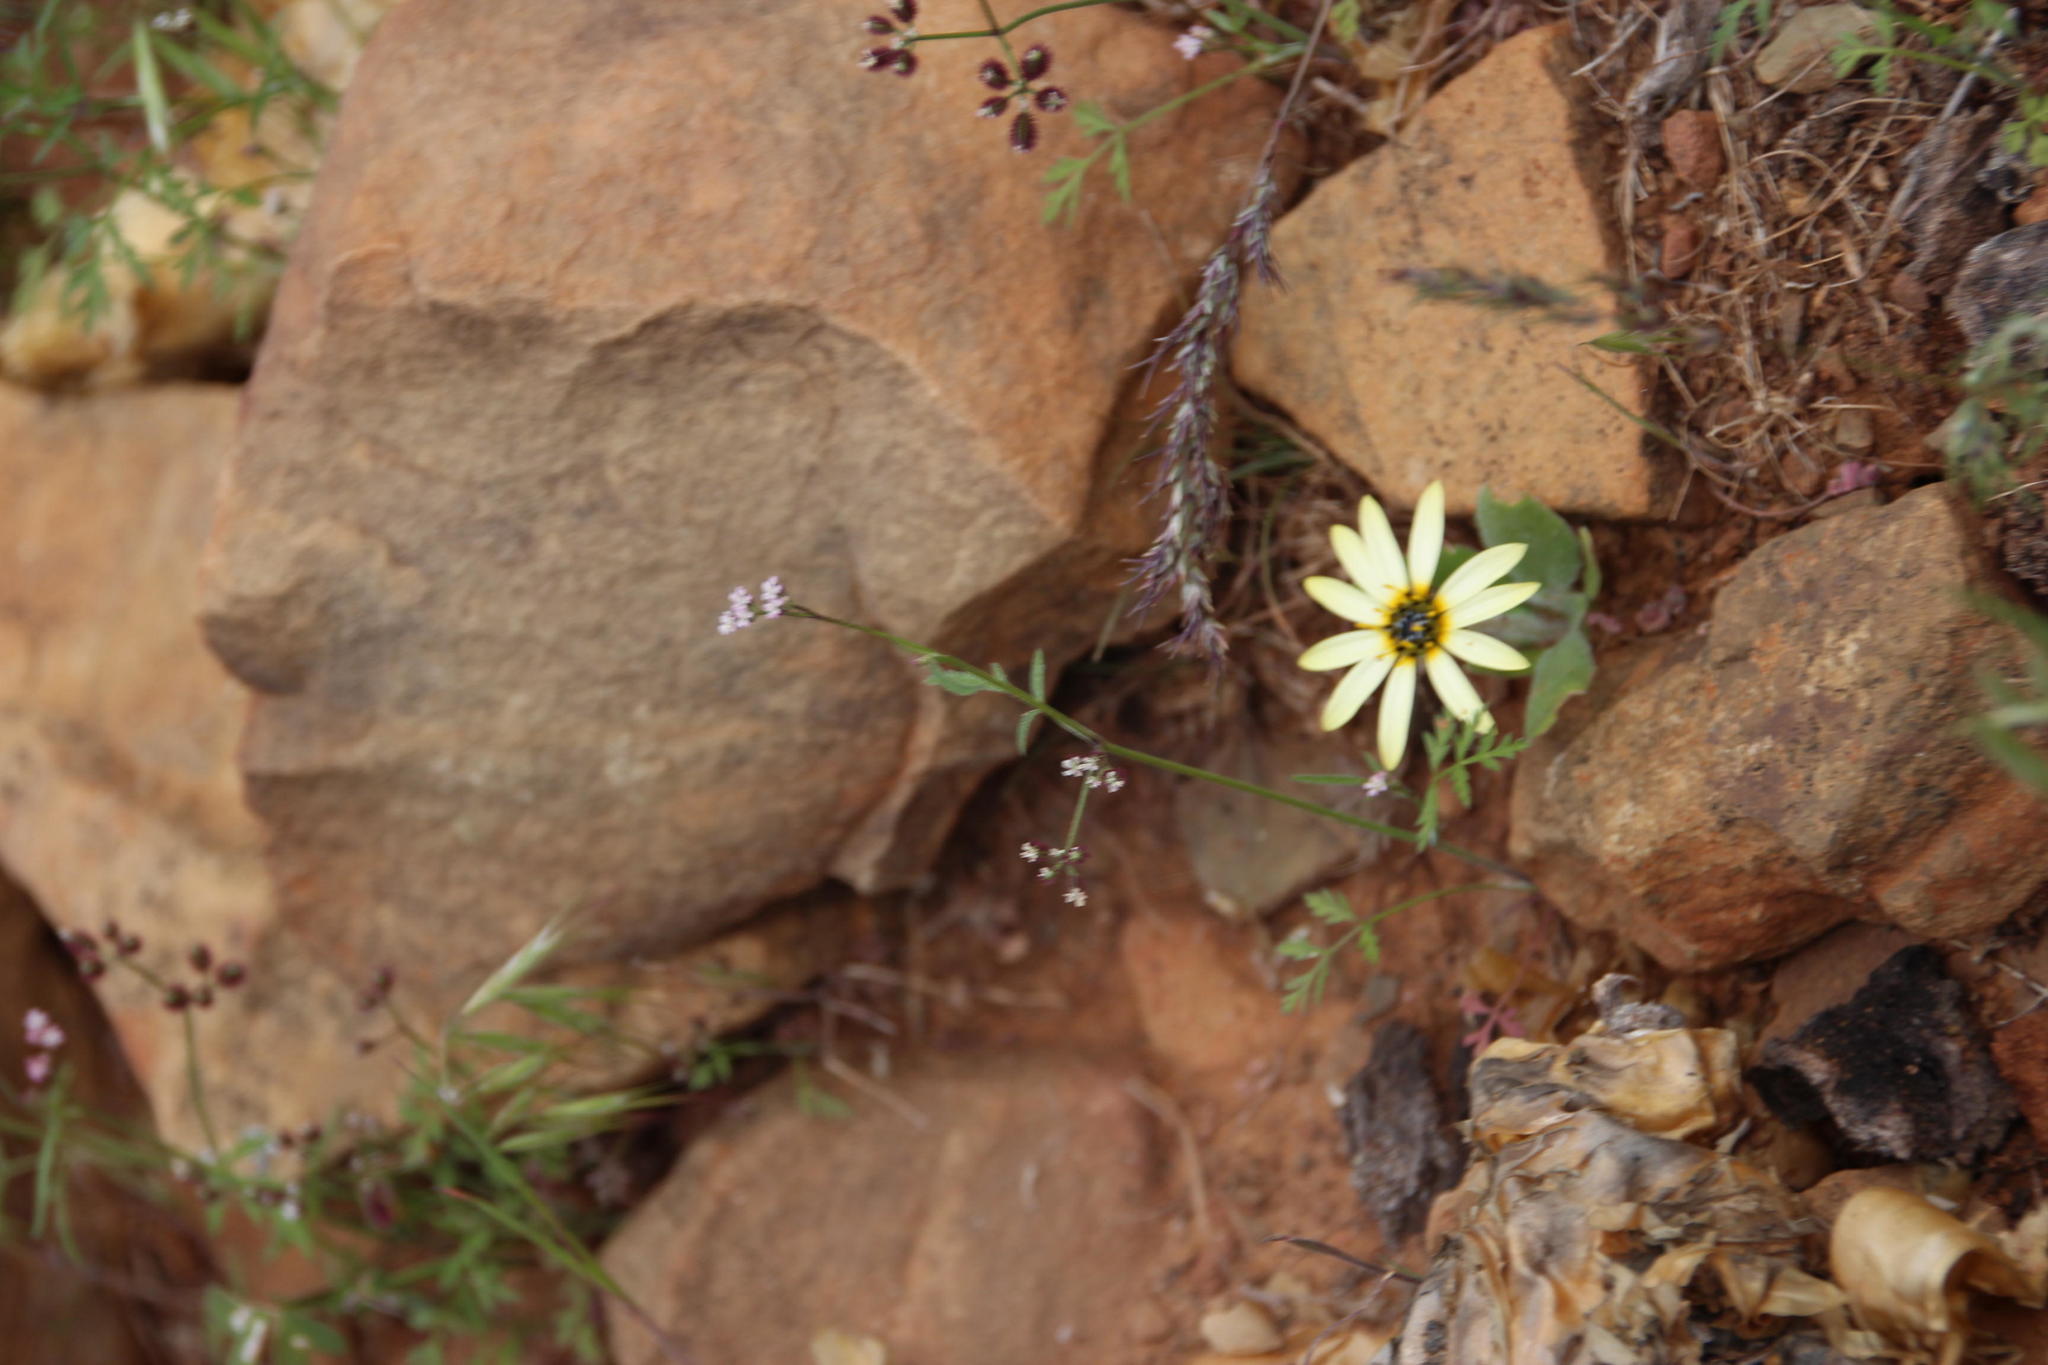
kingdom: Plantae
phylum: Tracheophyta
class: Magnoliopsida
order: Asterales
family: Asteraceae
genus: Arctotheca
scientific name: Arctotheca calendula
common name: Capeweed
